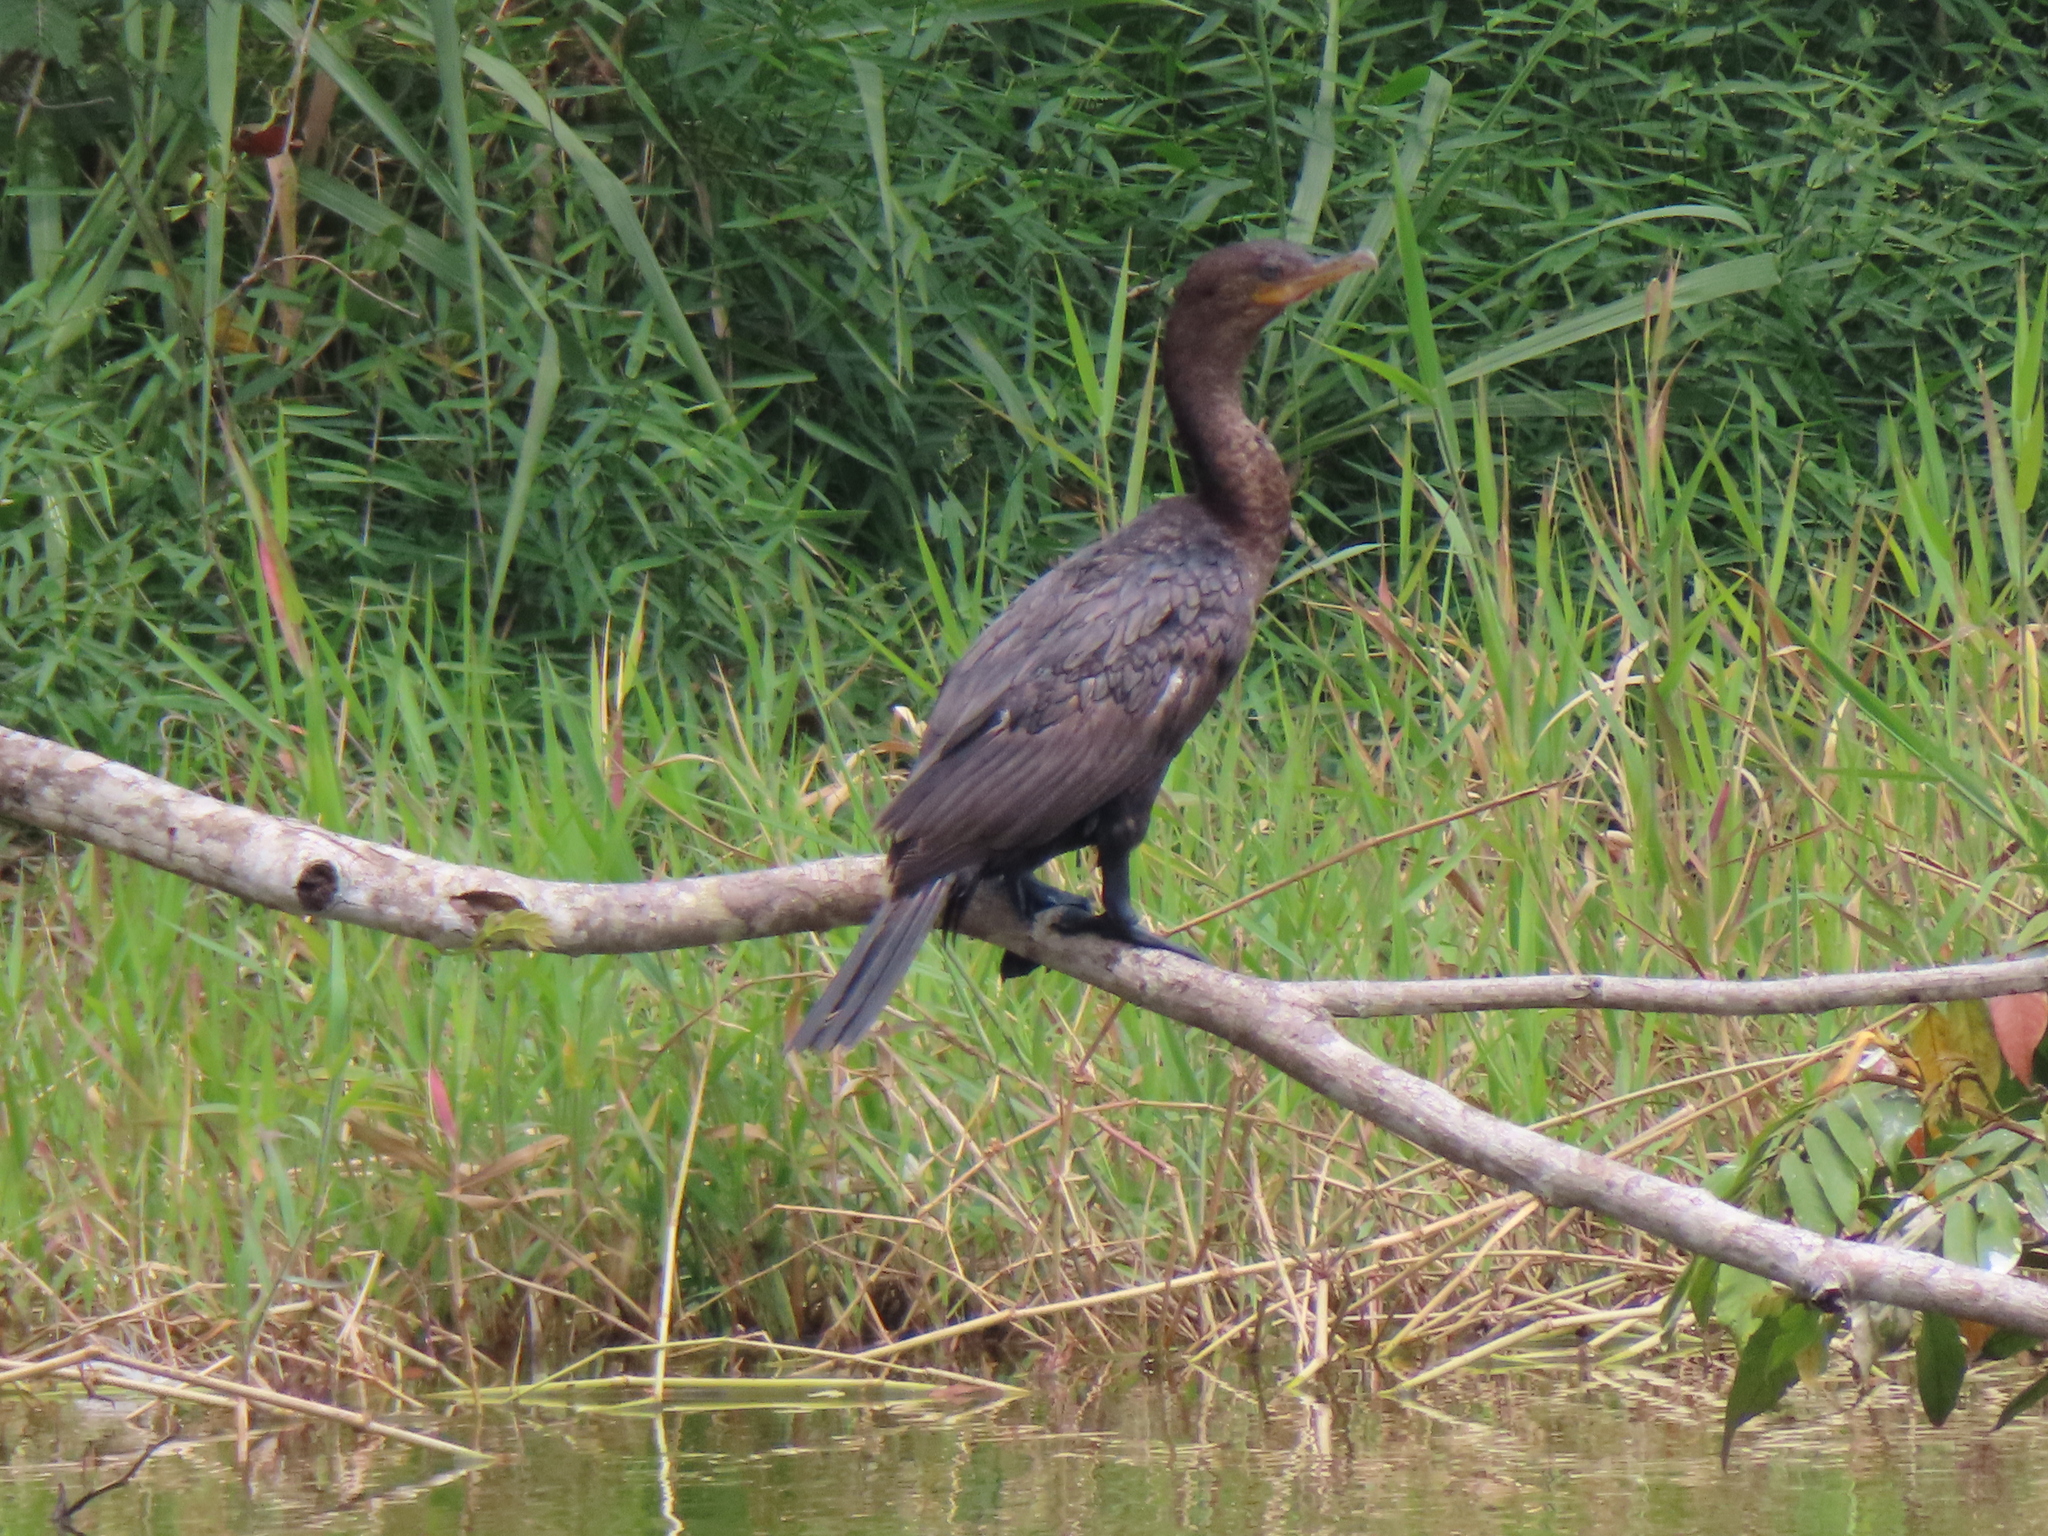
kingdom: Animalia
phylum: Chordata
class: Aves
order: Suliformes
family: Phalacrocoracidae
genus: Phalacrocorax
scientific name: Phalacrocorax brasilianus
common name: Neotropic cormorant
